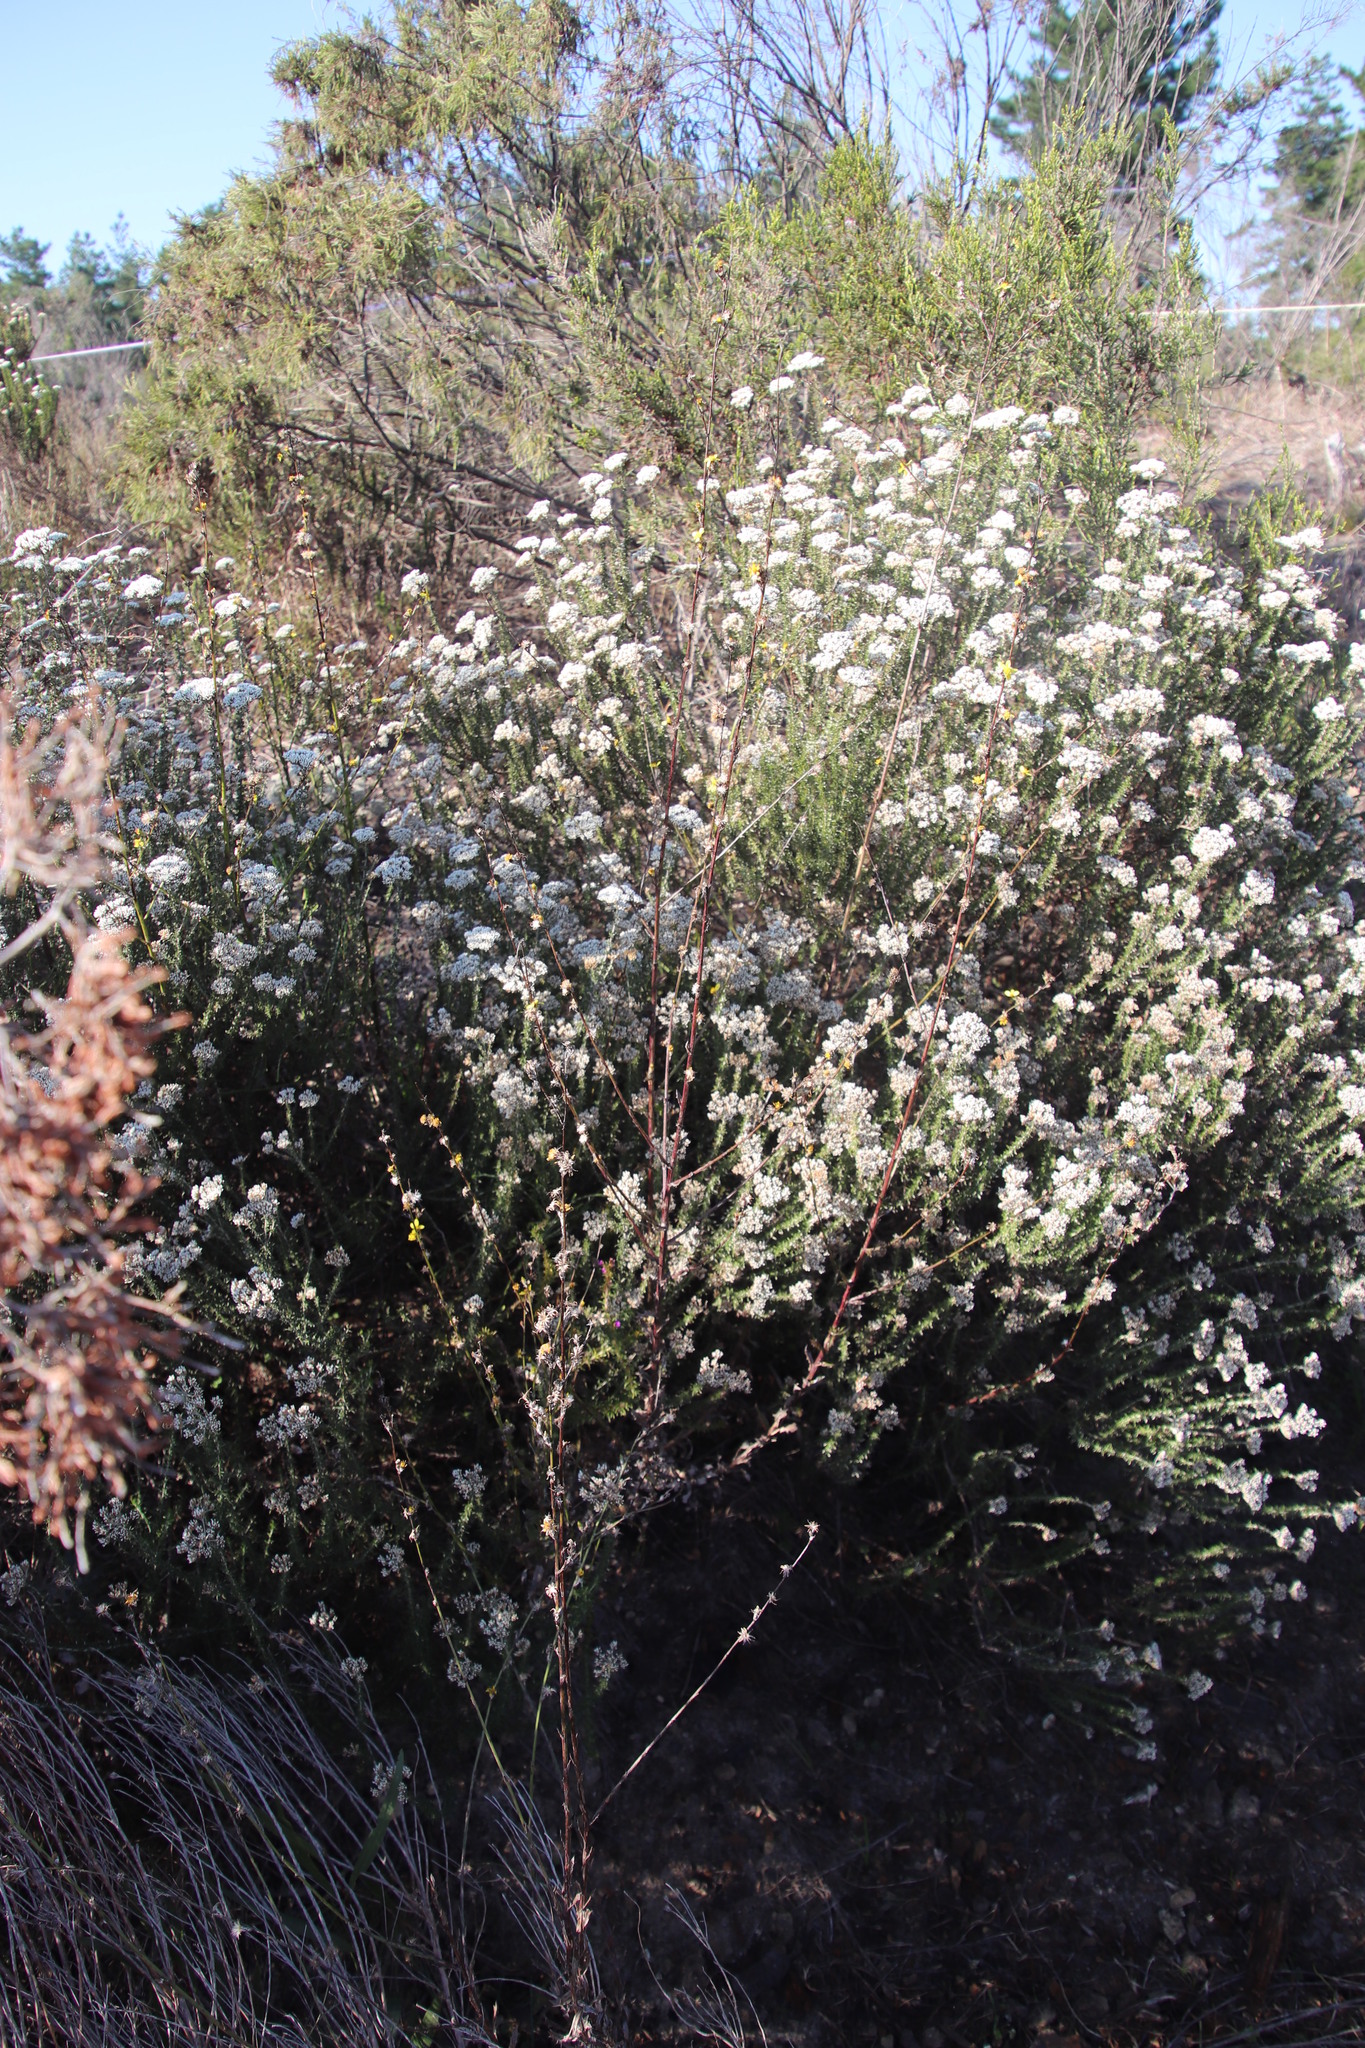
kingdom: Plantae
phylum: Tracheophyta
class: Magnoliopsida
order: Asterales
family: Asteraceae
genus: Senecio
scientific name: Senecio pubigerus
